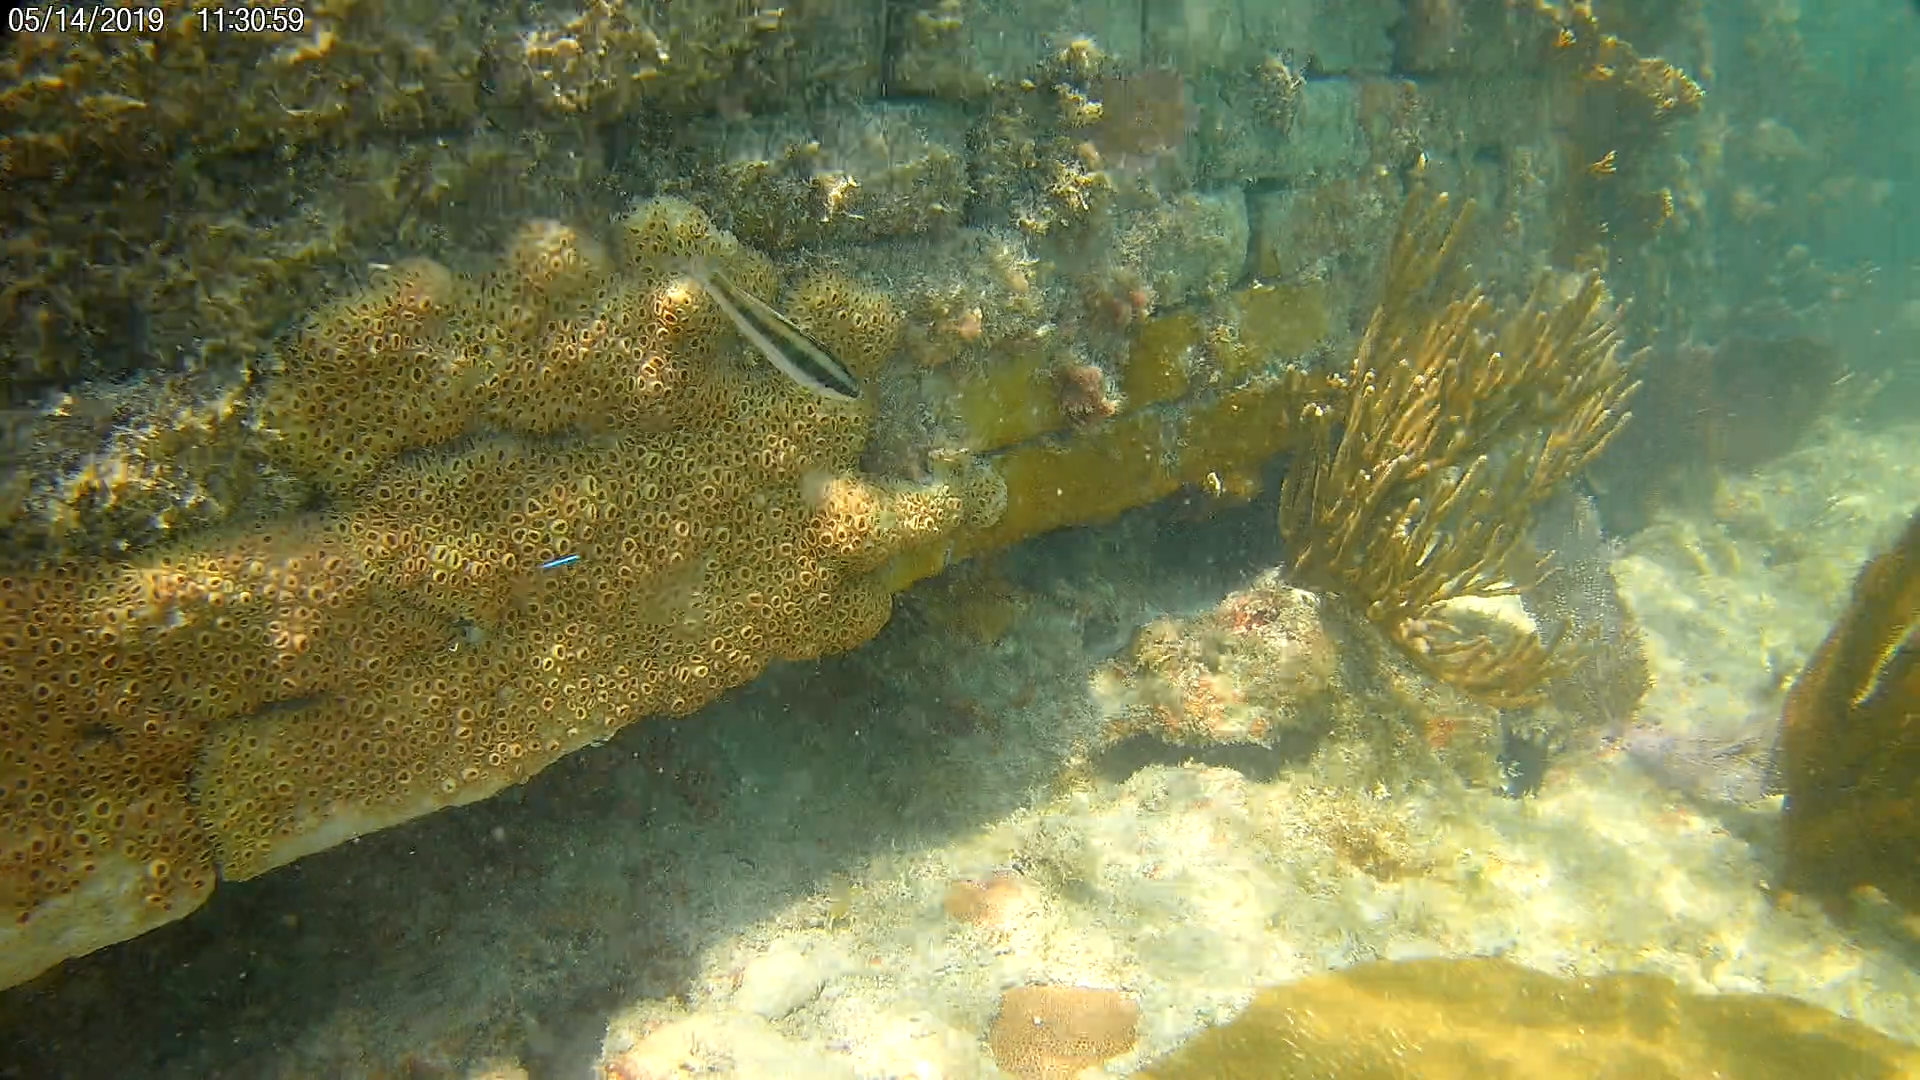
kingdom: Animalia
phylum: Chordata
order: Perciformes
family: Labridae
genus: Thalassoma
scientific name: Thalassoma bifasciatum
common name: Bluehead wrasse
